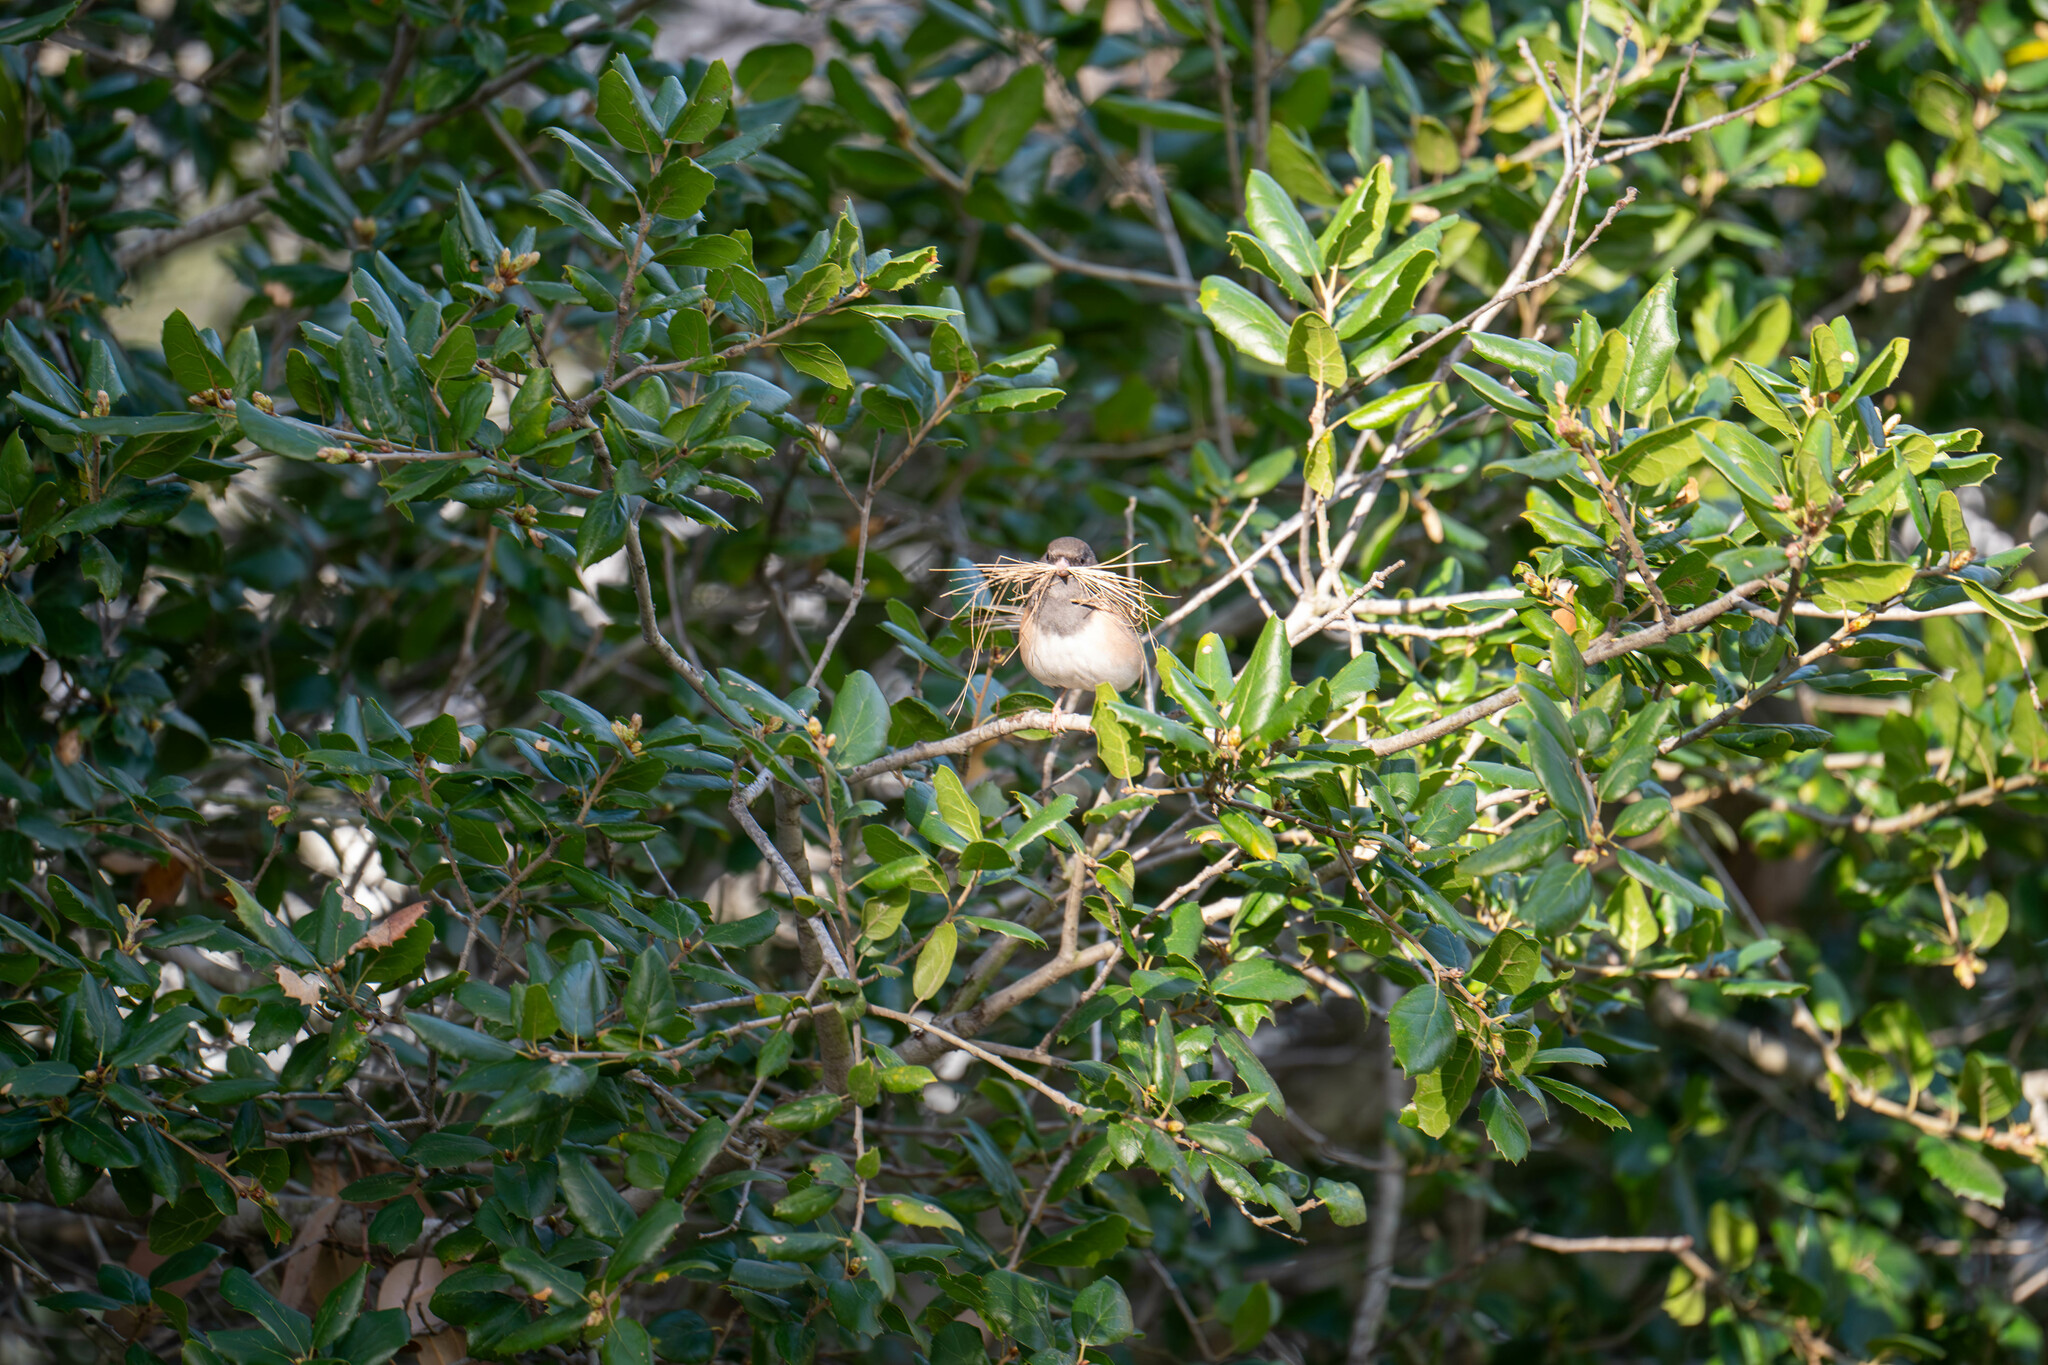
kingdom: Animalia
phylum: Chordata
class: Aves
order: Passeriformes
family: Passerellidae
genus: Junco
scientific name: Junco hyemalis
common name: Dark-eyed junco
